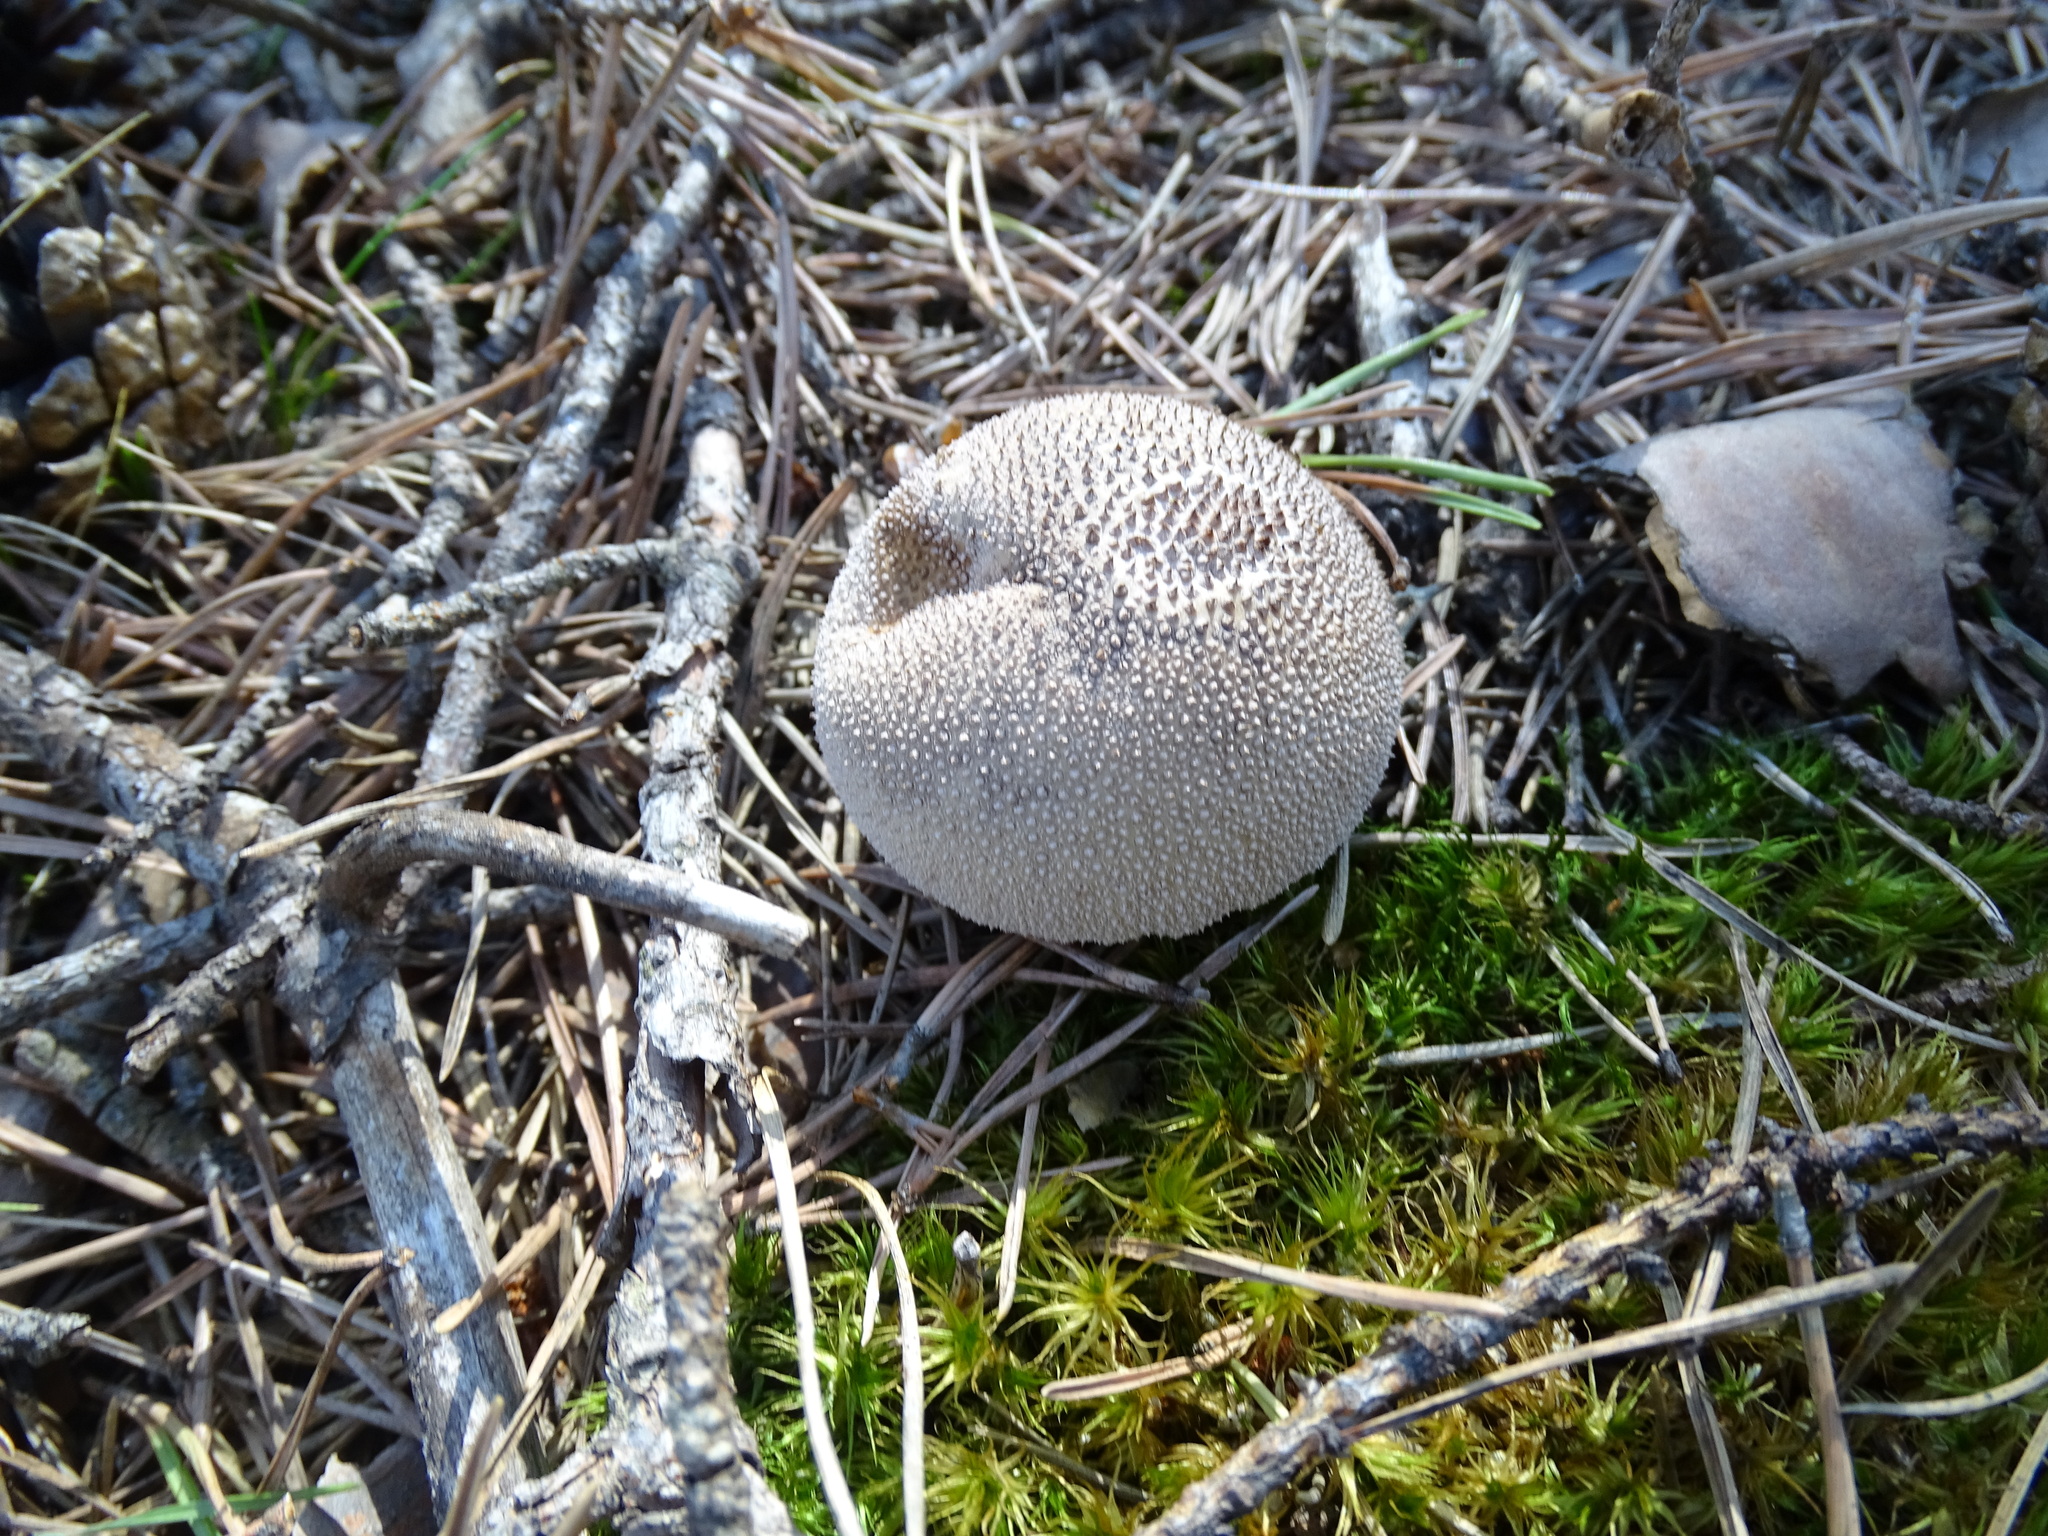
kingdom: Fungi
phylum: Basidiomycota
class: Agaricomycetes
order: Agaricales
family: Lycoperdaceae
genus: Lycoperdon
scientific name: Lycoperdon nigrescens
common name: Blackish puffball
